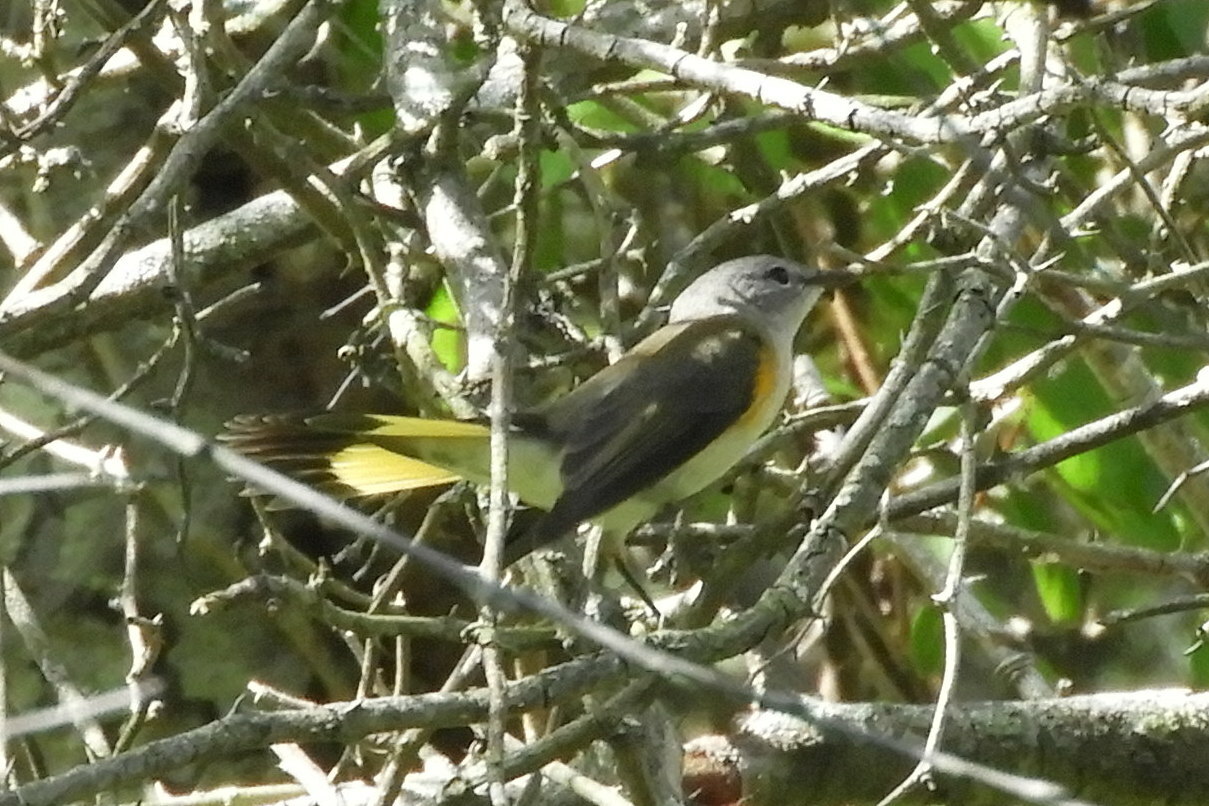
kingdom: Animalia
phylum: Chordata
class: Aves
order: Passeriformes
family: Parulidae
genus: Setophaga
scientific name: Setophaga ruticilla
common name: American redstart
